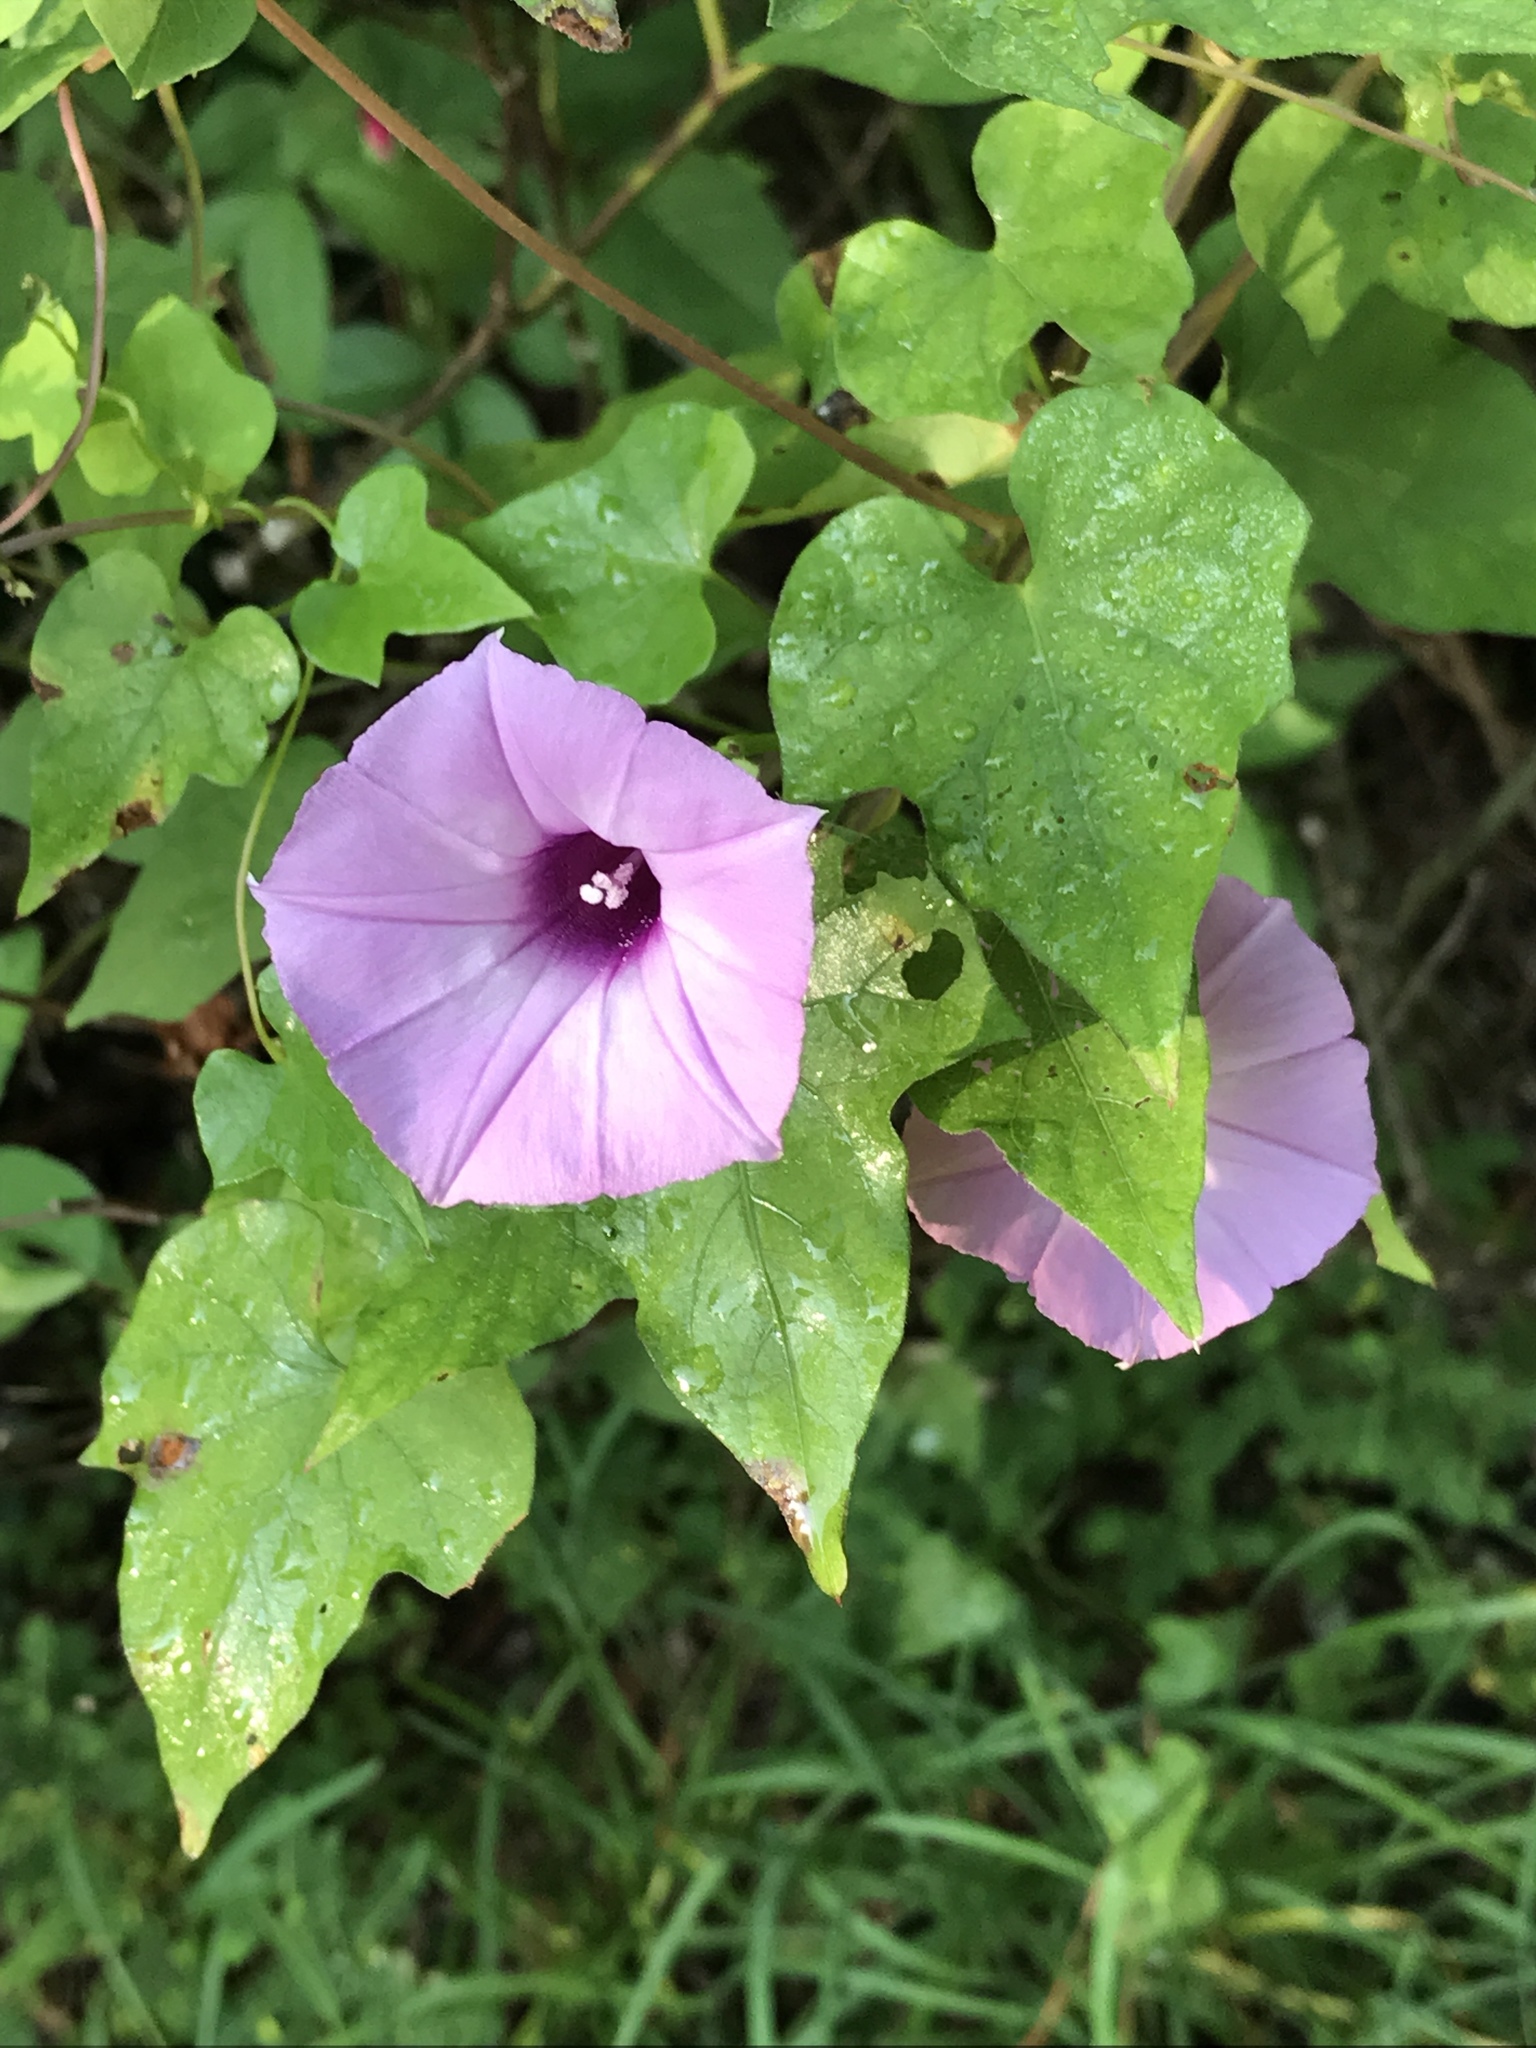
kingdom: Plantae
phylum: Tracheophyta
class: Magnoliopsida
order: Solanales
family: Convolvulaceae
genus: Ipomoea
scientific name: Ipomoea cordatotriloba
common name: Cotton morning glory
